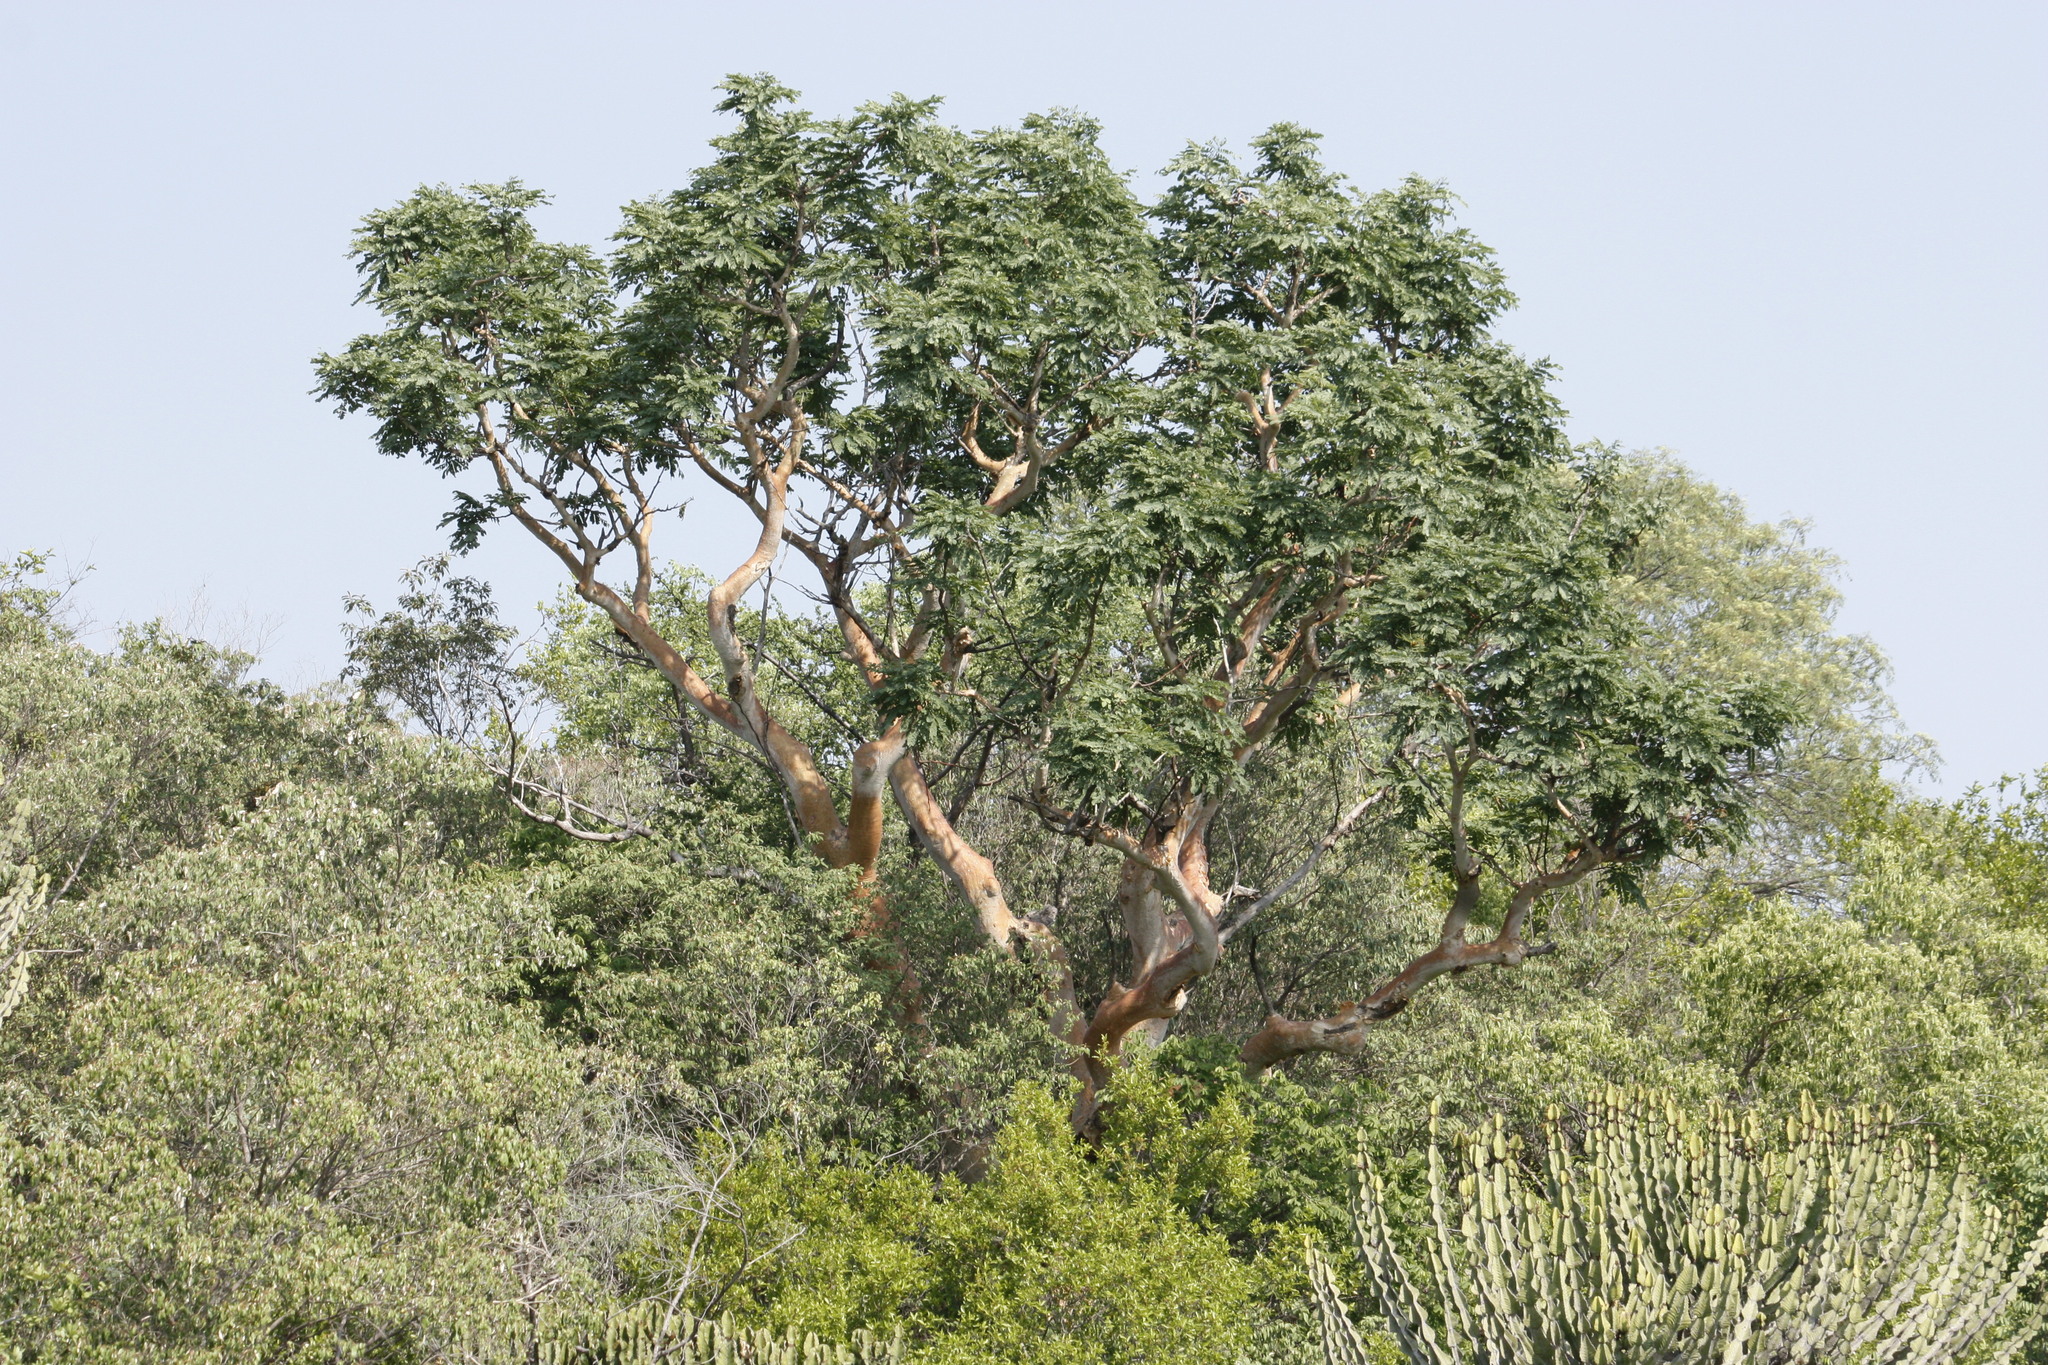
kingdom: Plantae
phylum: Tracheophyta
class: Magnoliopsida
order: Fabales
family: Fabaceae
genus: Albizia
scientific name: Albizia tanganyicensis
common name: Paperbark false thorn
